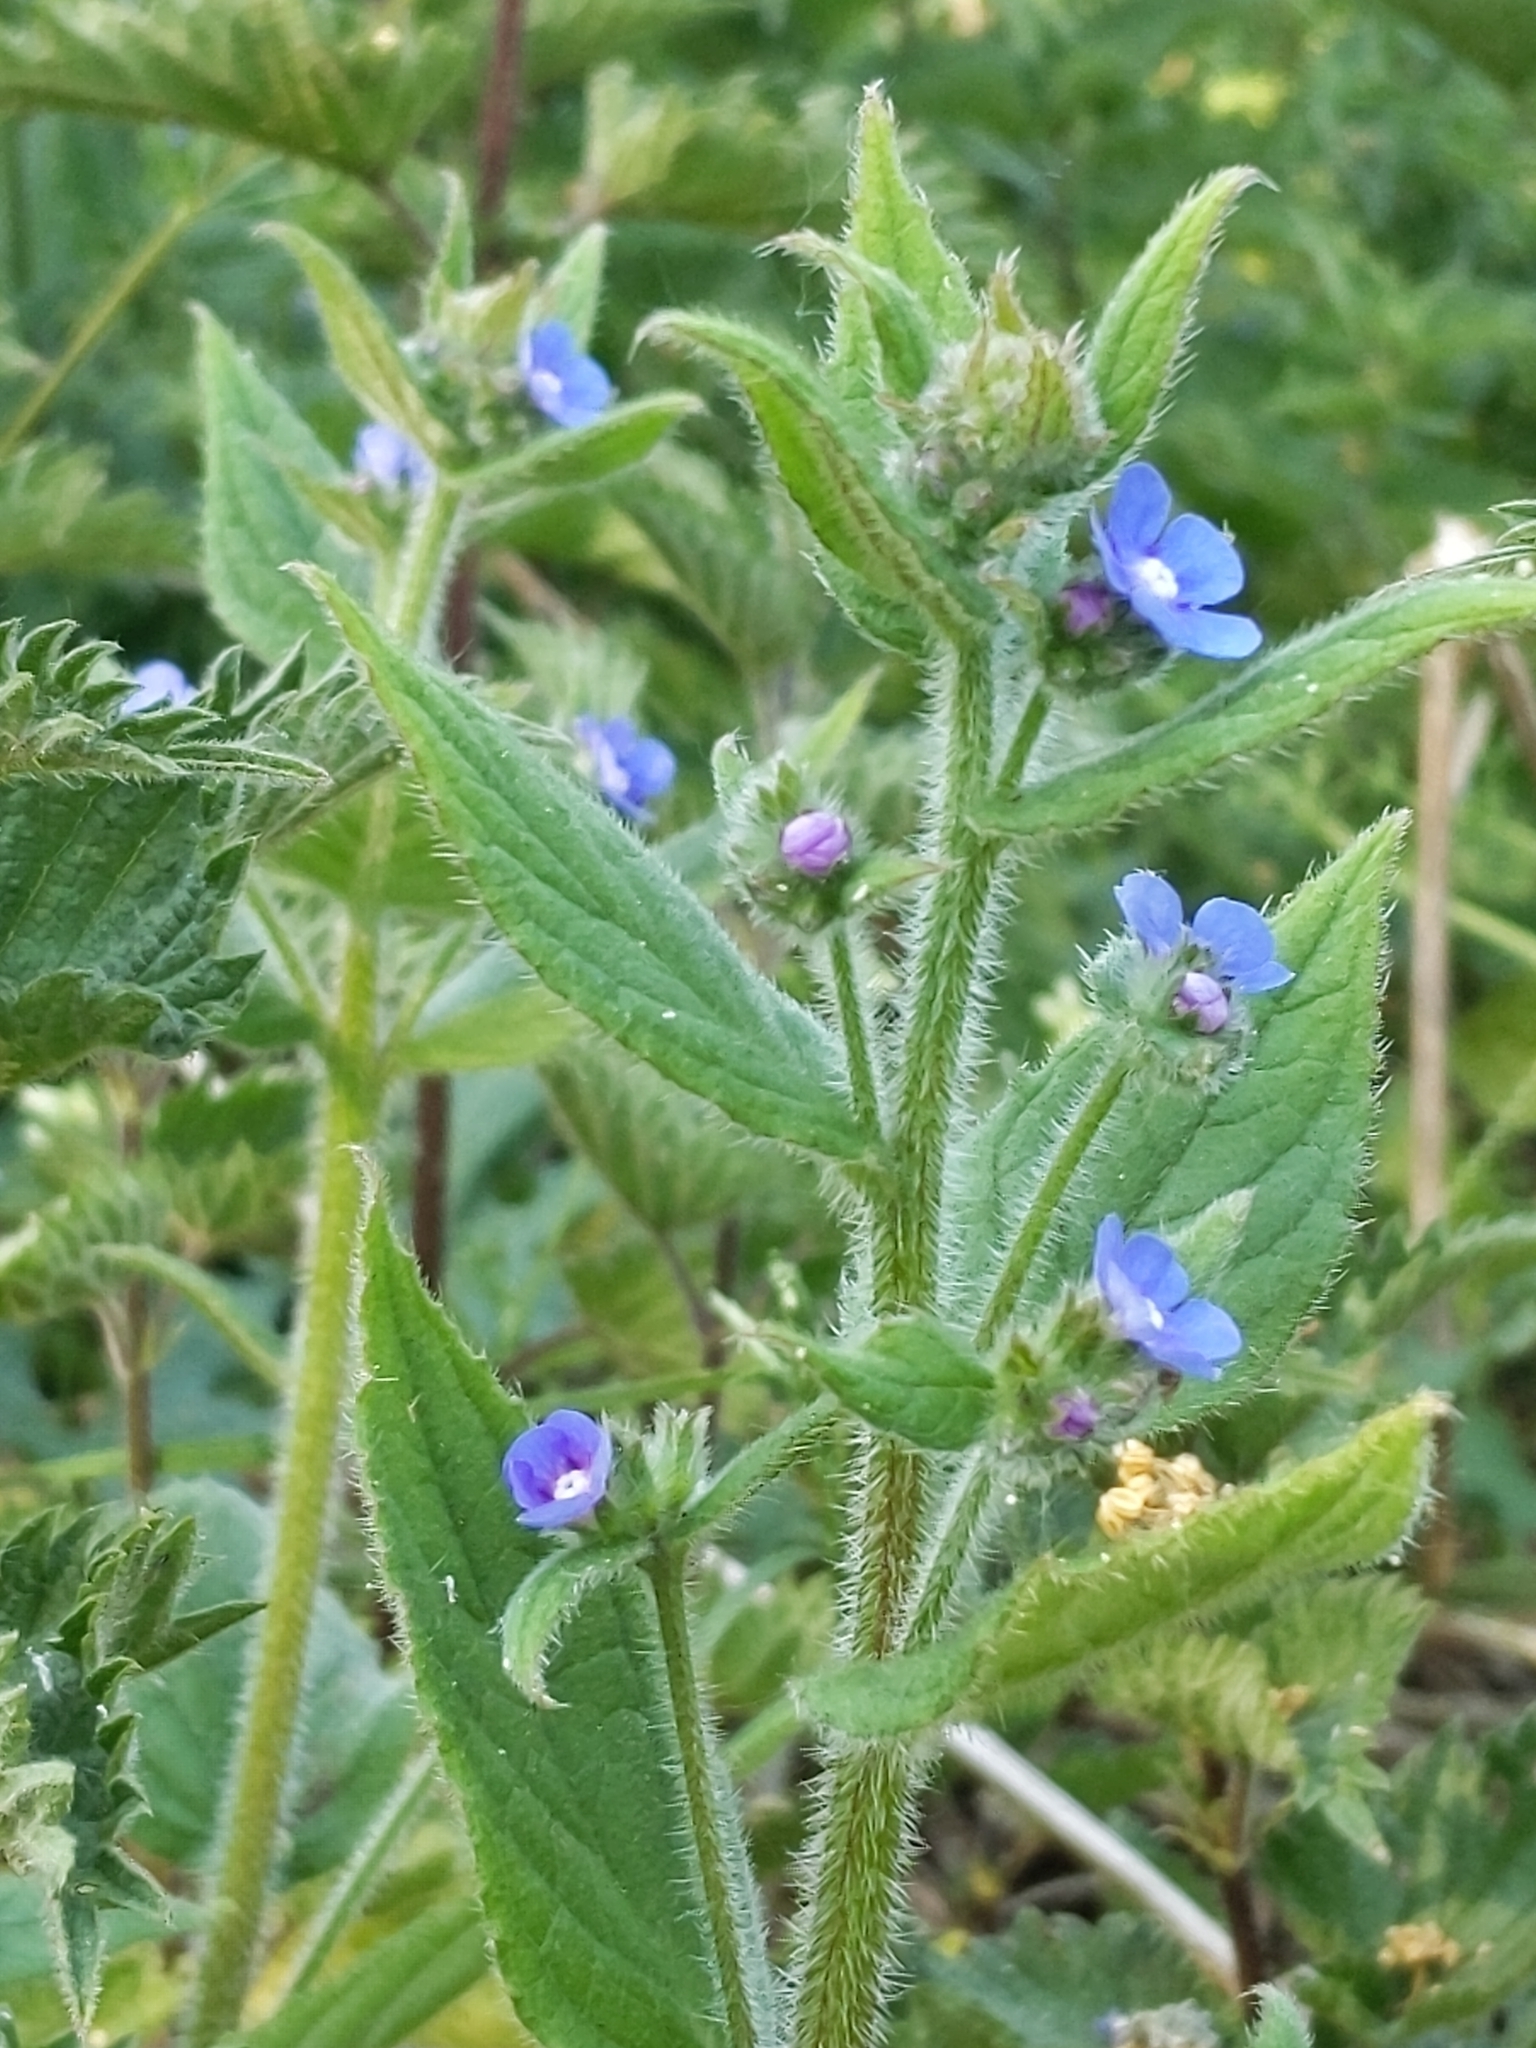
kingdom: Plantae
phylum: Tracheophyta
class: Magnoliopsida
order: Boraginales
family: Boraginaceae
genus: Pentaglottis
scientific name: Pentaglottis sempervirens
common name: Green alkanet
